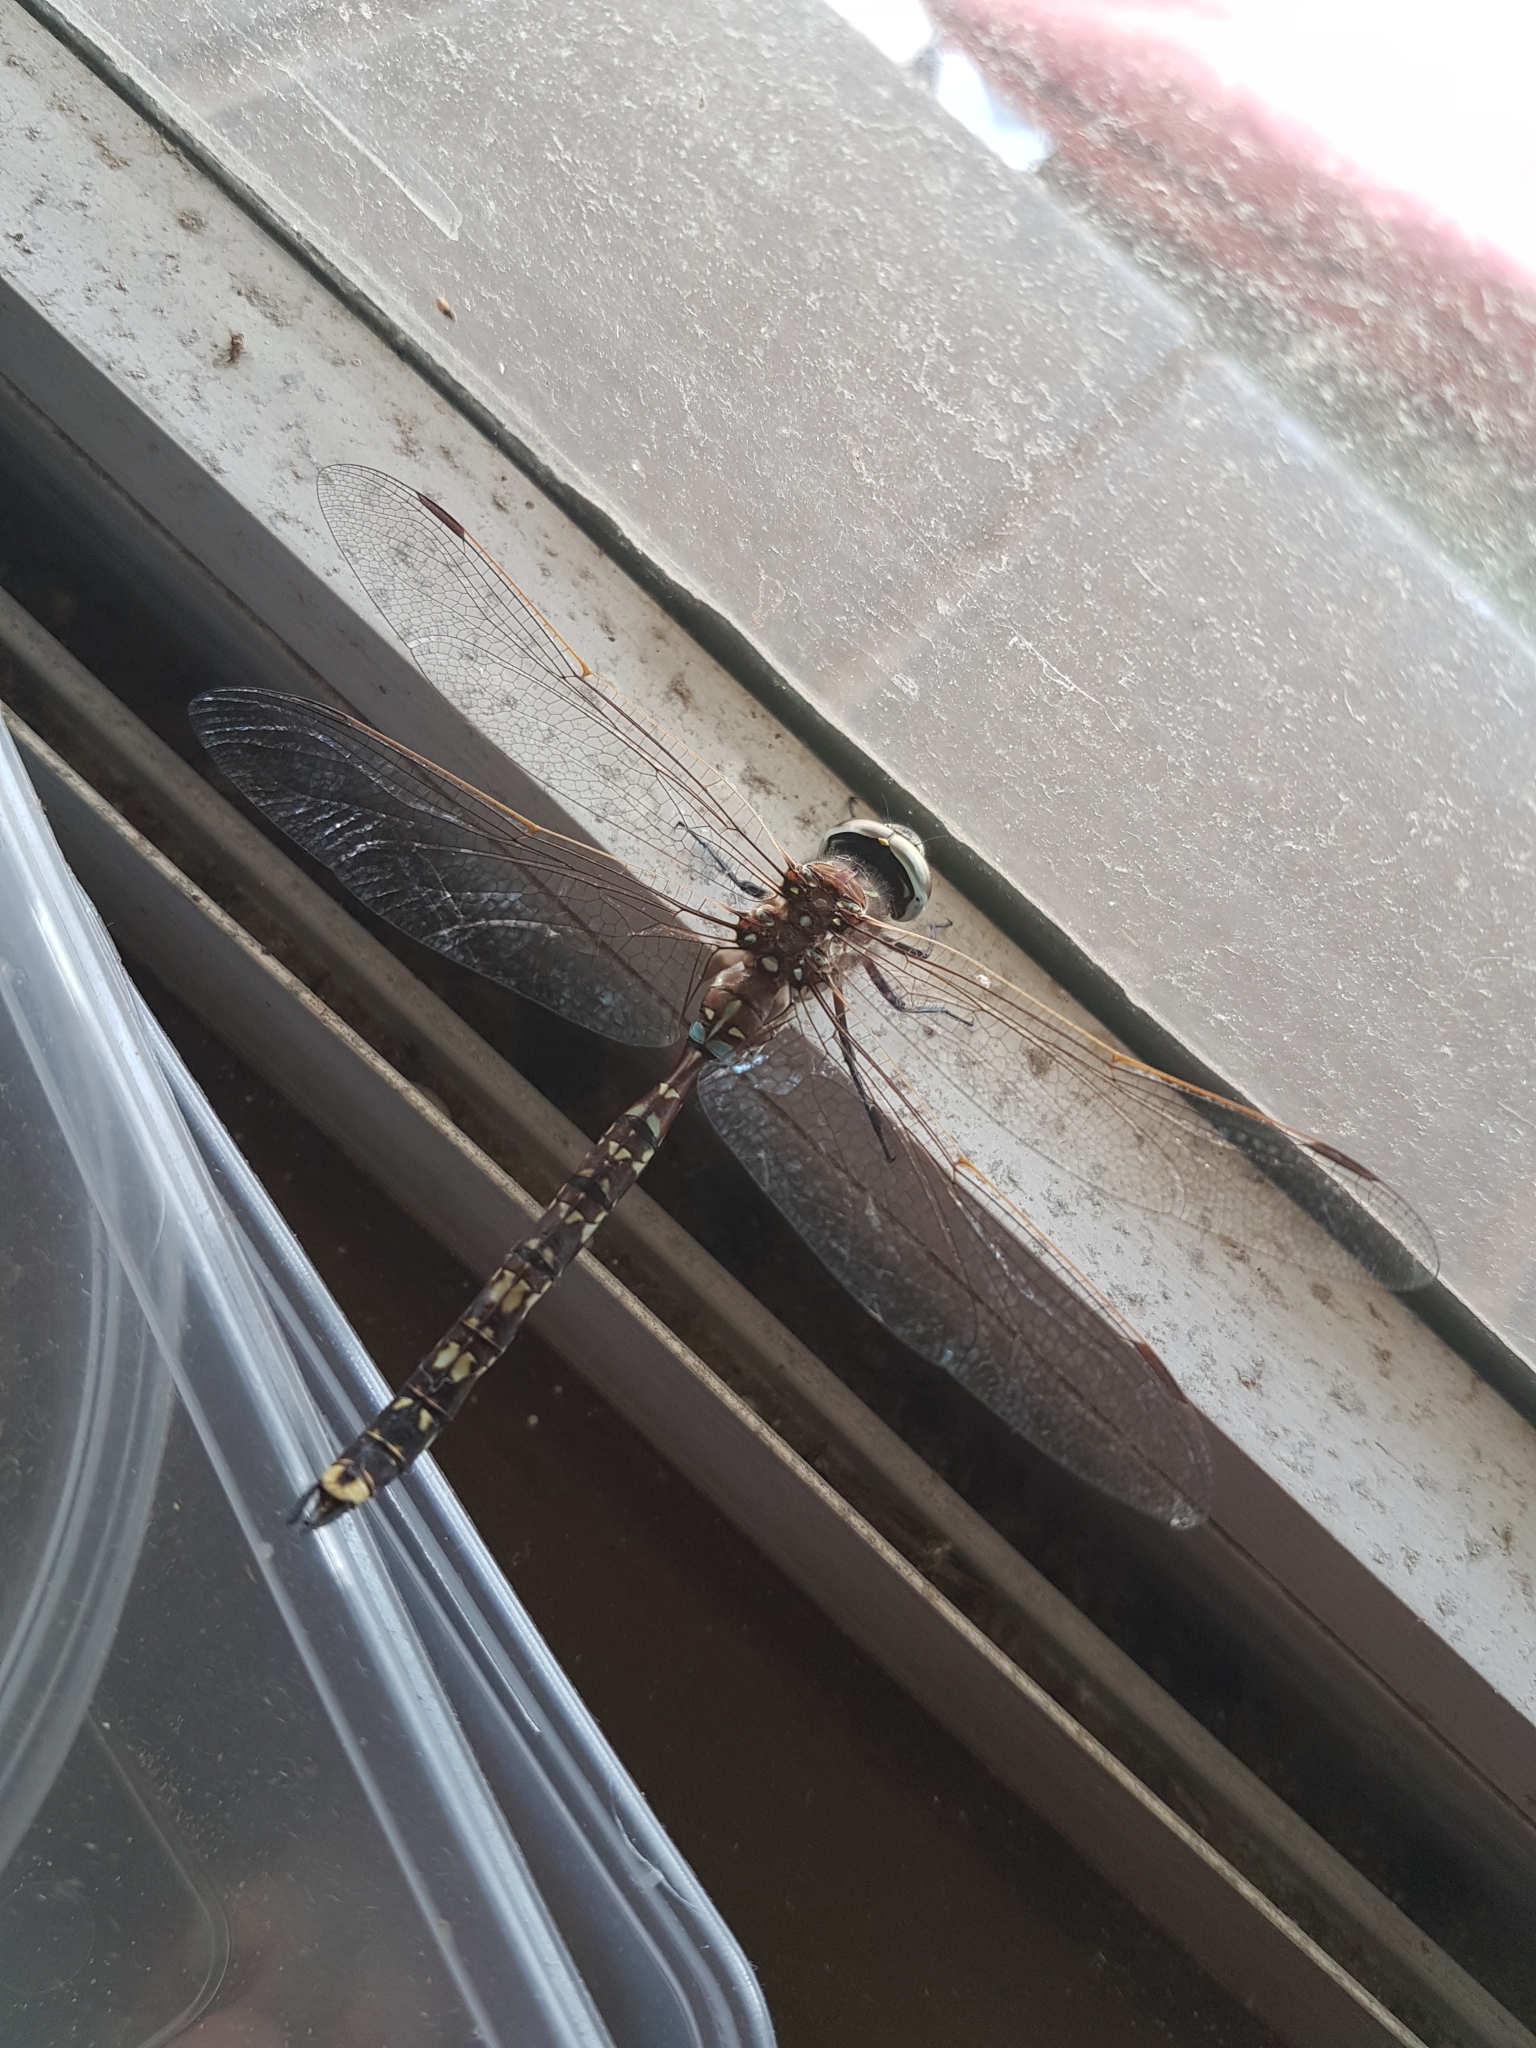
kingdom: Animalia
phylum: Arthropoda
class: Insecta
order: Odonata
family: Aeshnidae
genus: Aeshna
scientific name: Aeshna brevistyla
